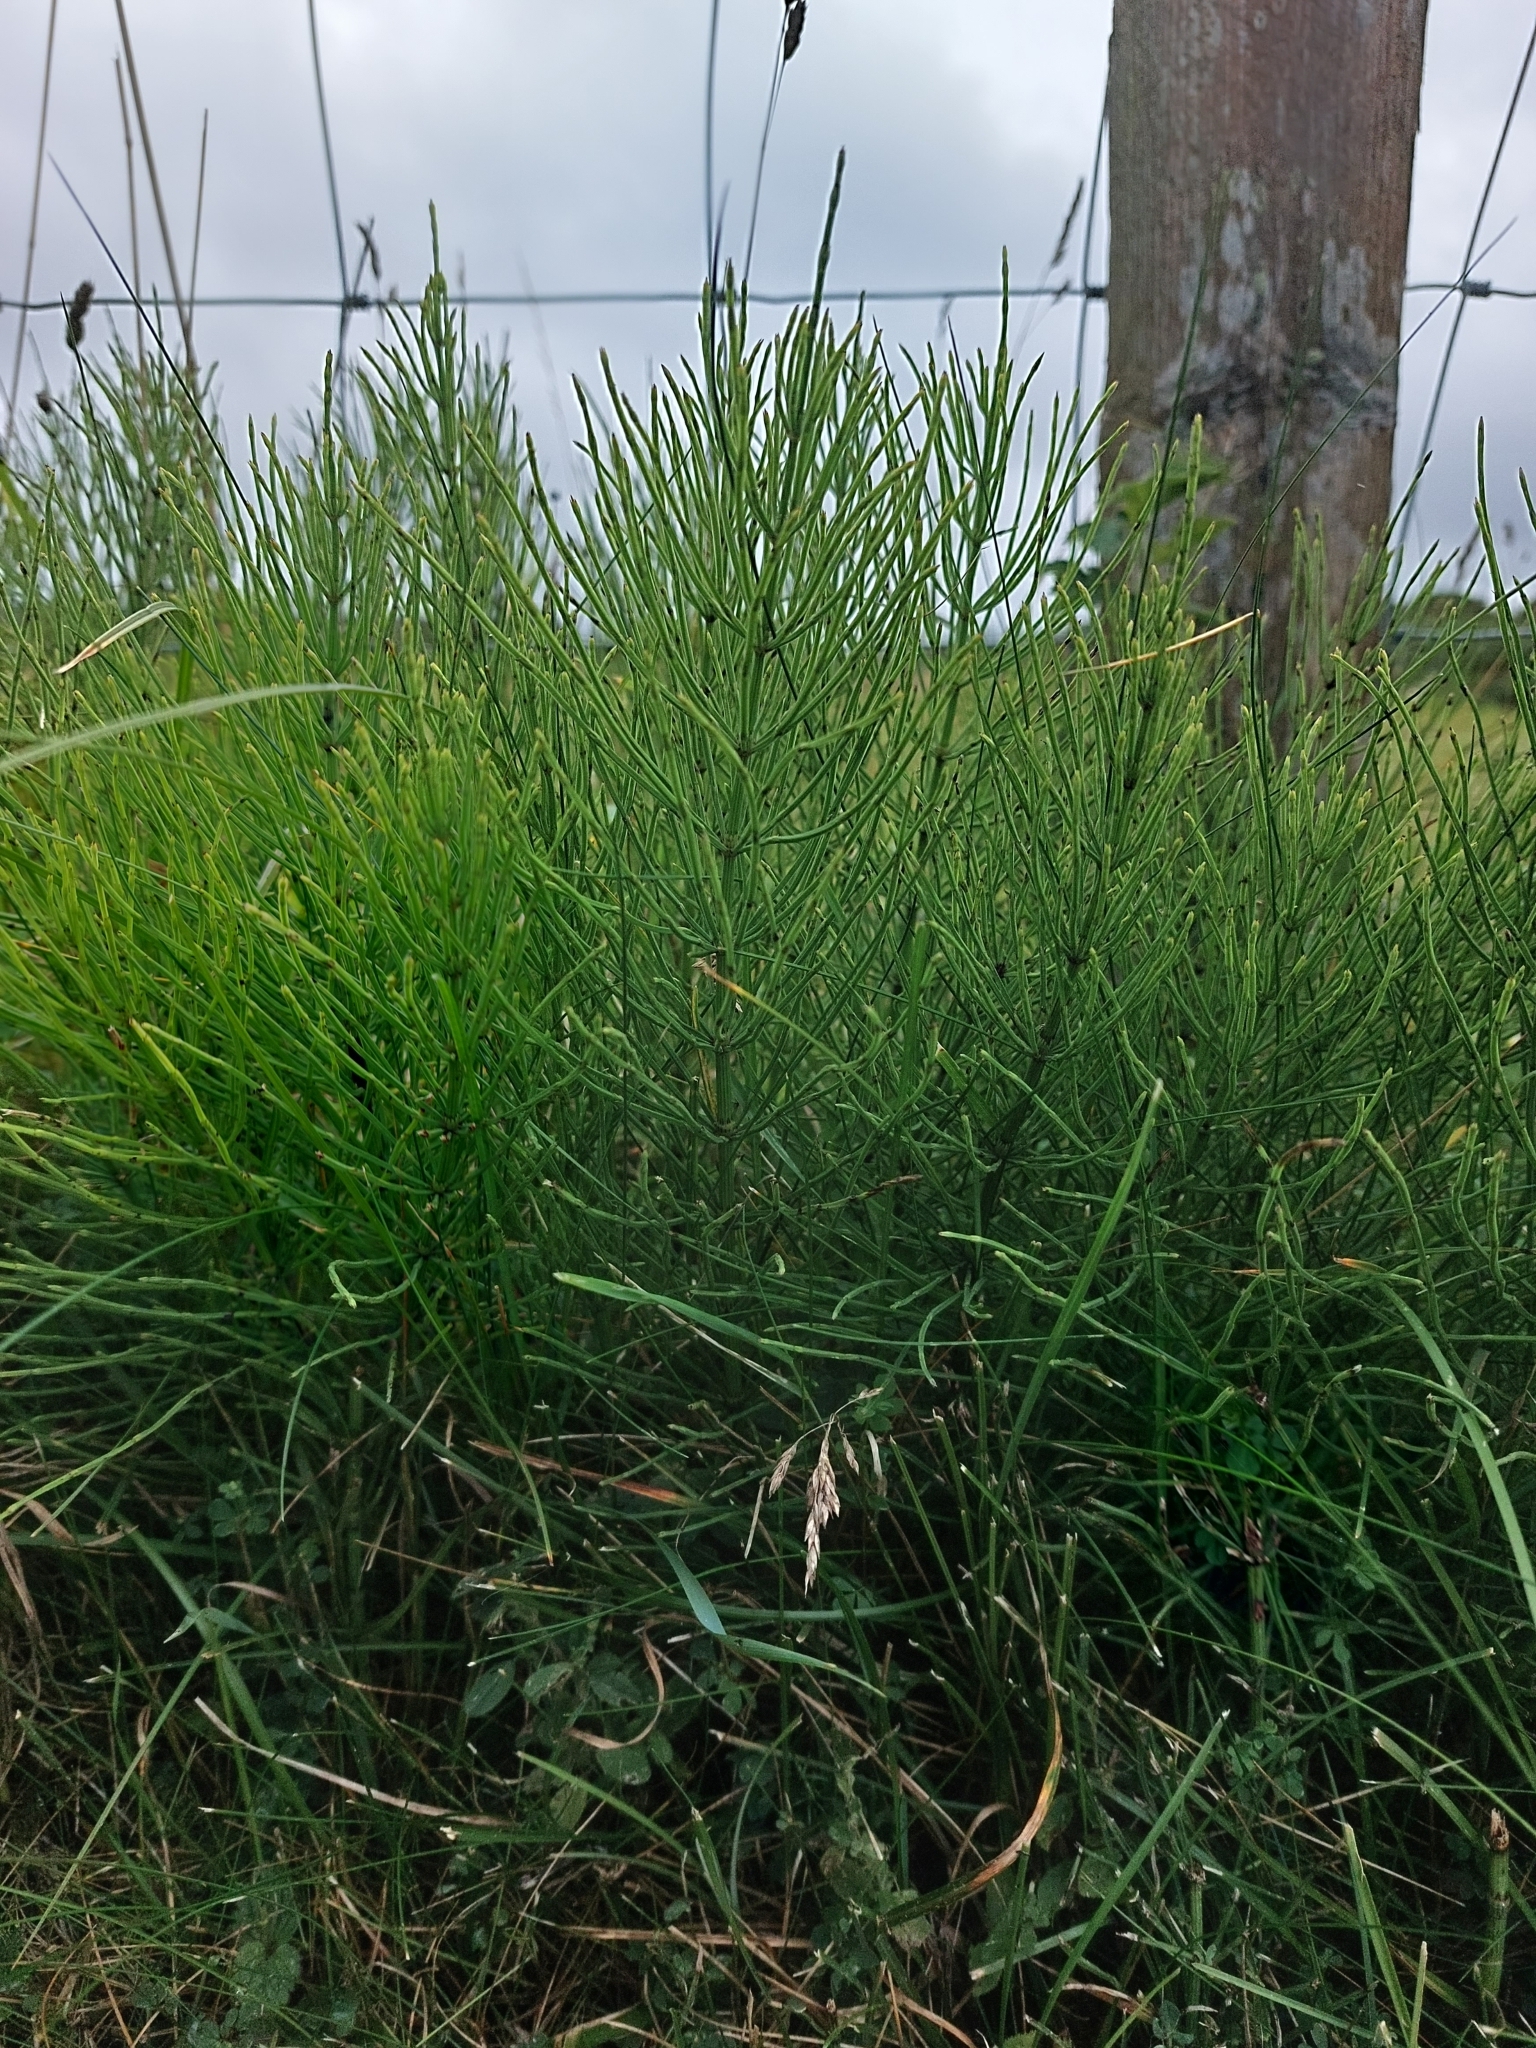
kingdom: Plantae
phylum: Tracheophyta
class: Polypodiopsida
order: Equisetales
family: Equisetaceae
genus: Equisetum
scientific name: Equisetum arvense
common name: Field horsetail
